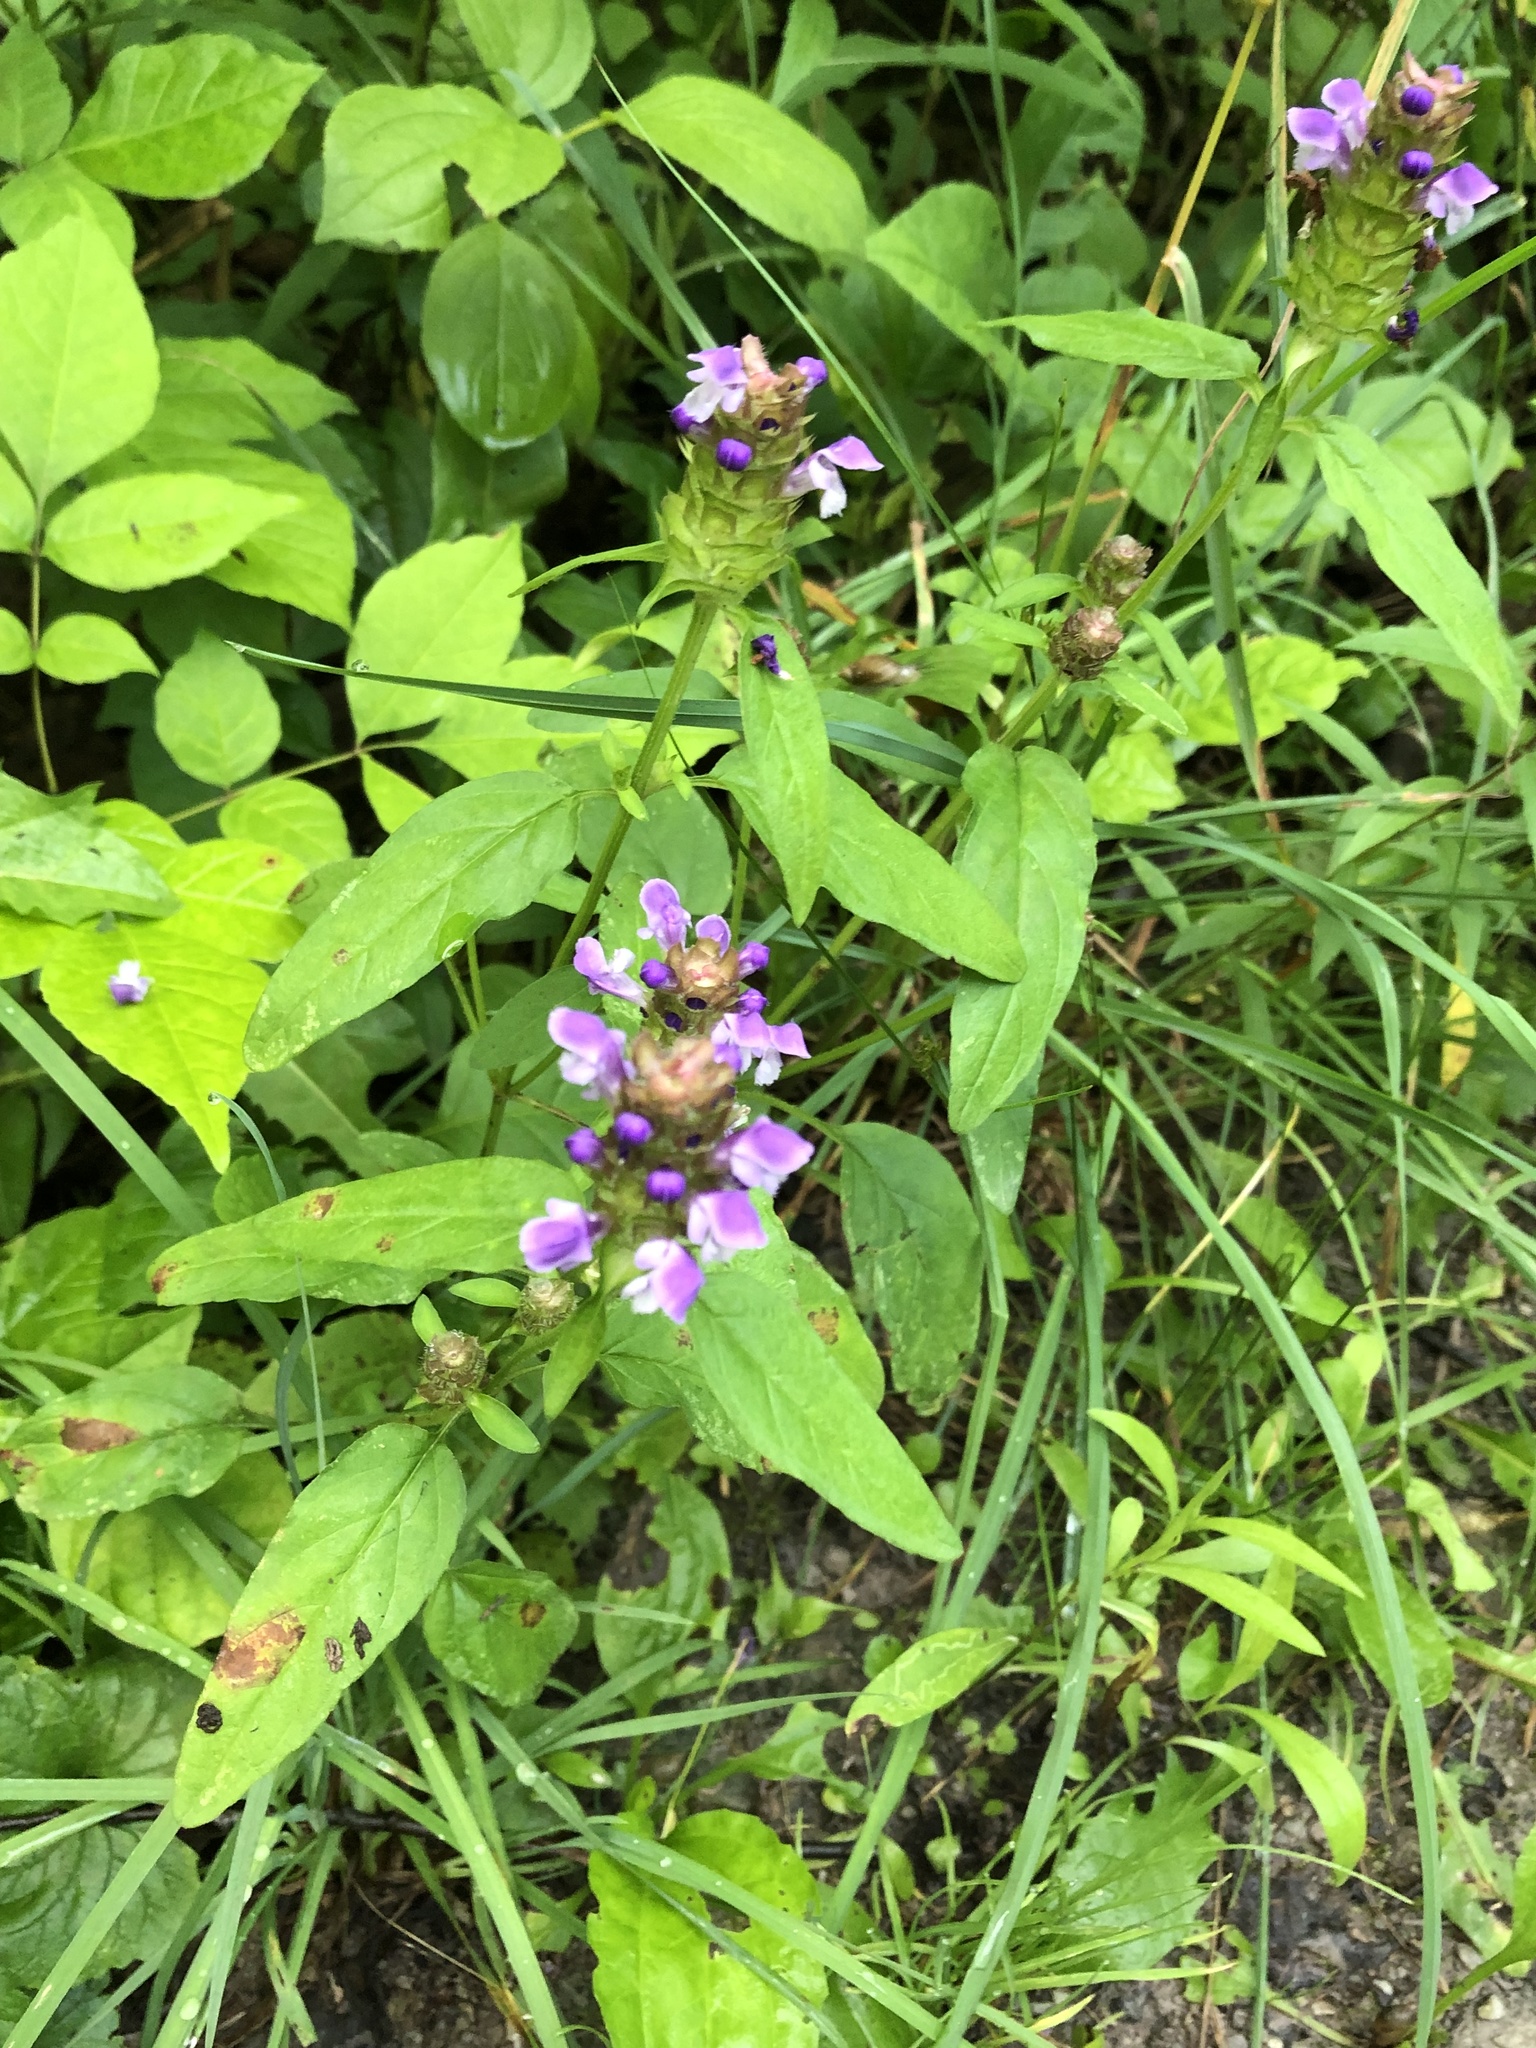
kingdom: Plantae
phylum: Tracheophyta
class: Magnoliopsida
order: Lamiales
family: Lamiaceae
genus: Prunella
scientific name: Prunella vulgaris
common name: Heal-all
